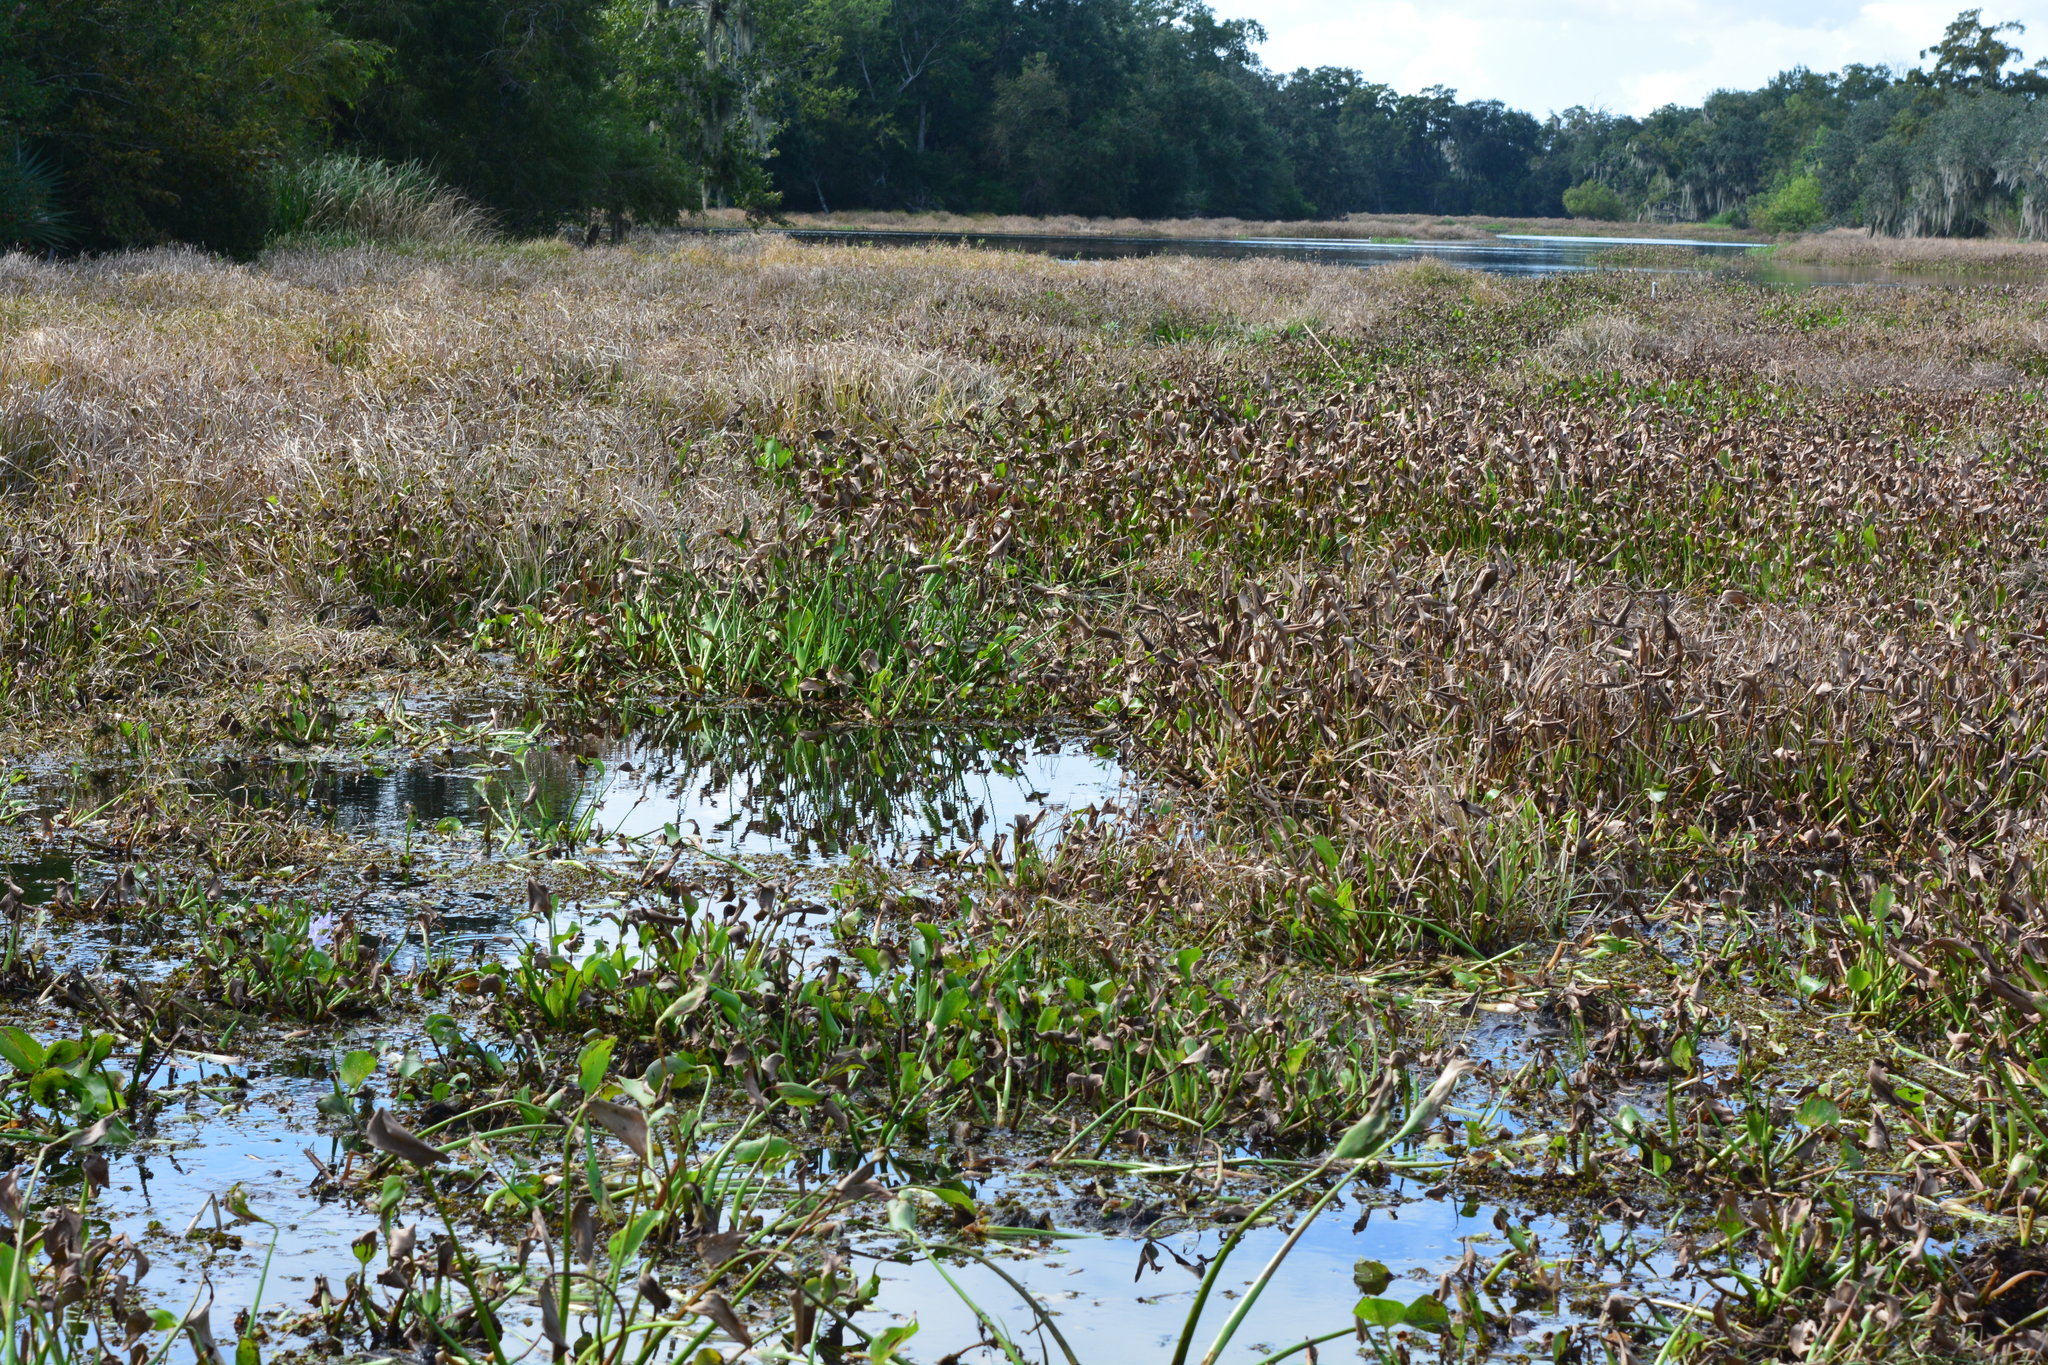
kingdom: Plantae
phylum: Tracheophyta
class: Liliopsida
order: Commelinales
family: Pontederiaceae
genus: Pontederia
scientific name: Pontederia crassipes
